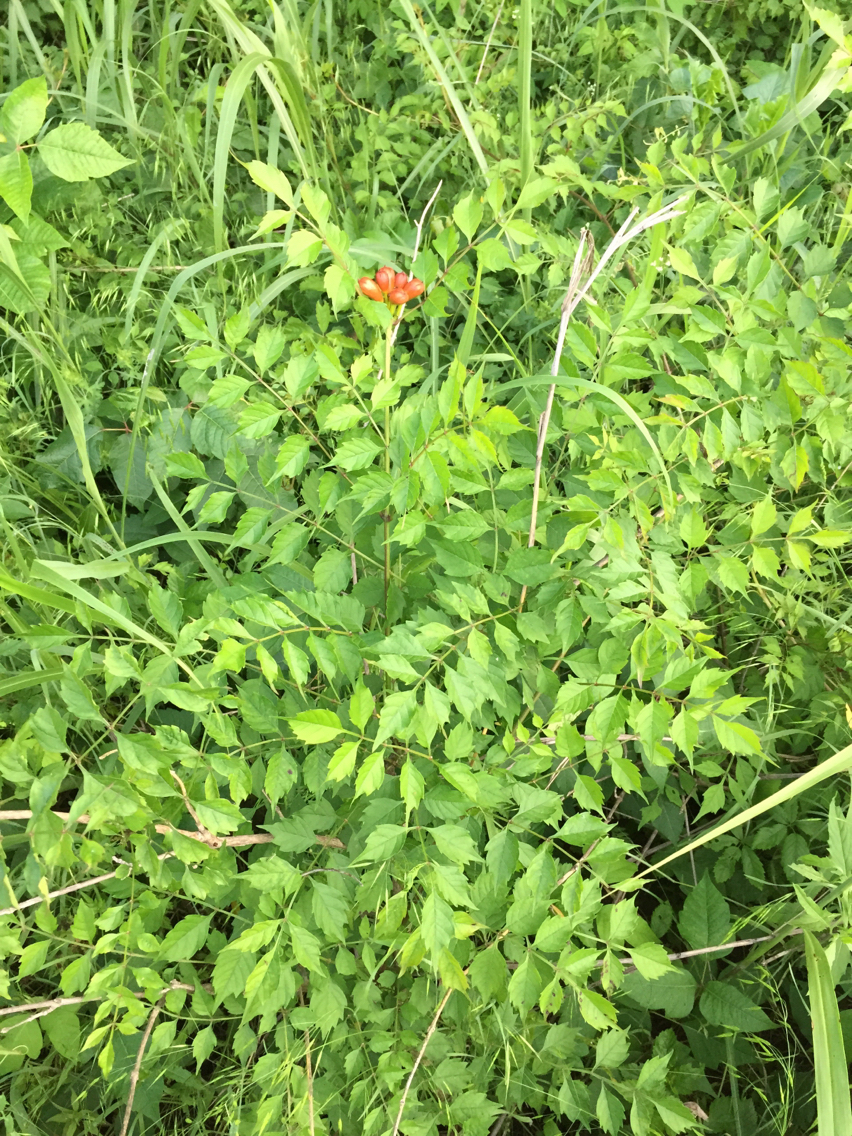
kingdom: Plantae
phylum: Tracheophyta
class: Magnoliopsida
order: Lamiales
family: Bignoniaceae
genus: Campsis
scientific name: Campsis radicans
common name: Trumpet-creeper
